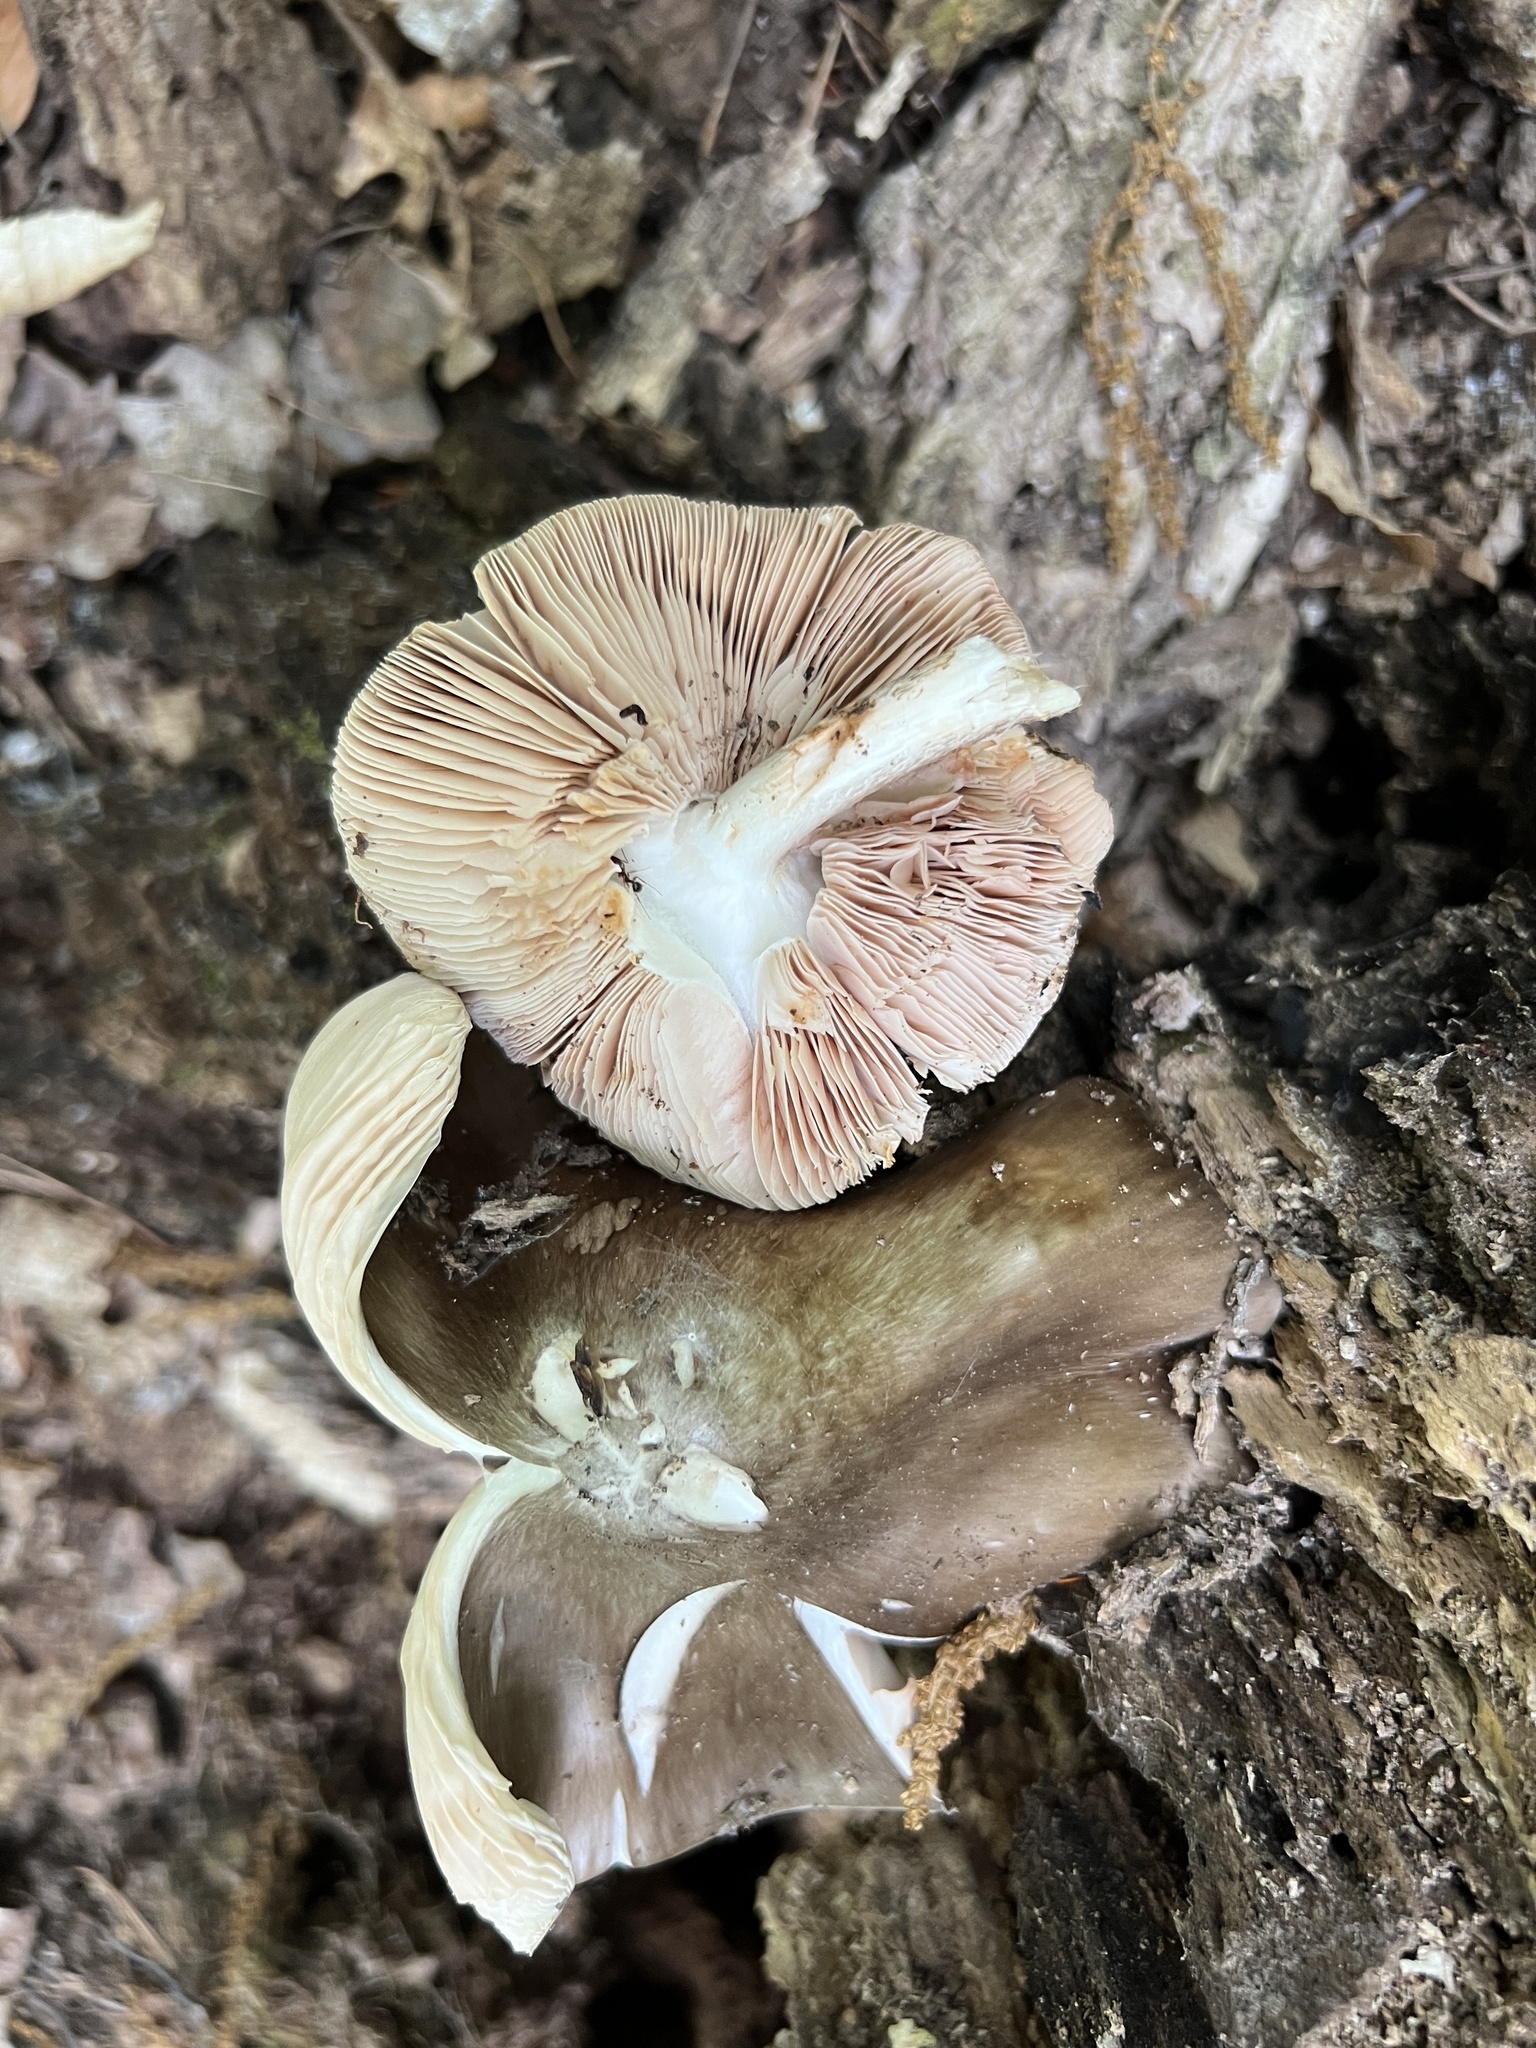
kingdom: Fungi
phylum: Basidiomycota
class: Agaricomycetes
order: Agaricales
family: Pluteaceae
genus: Pluteus
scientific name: Pluteus cervinus
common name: Deer shield
